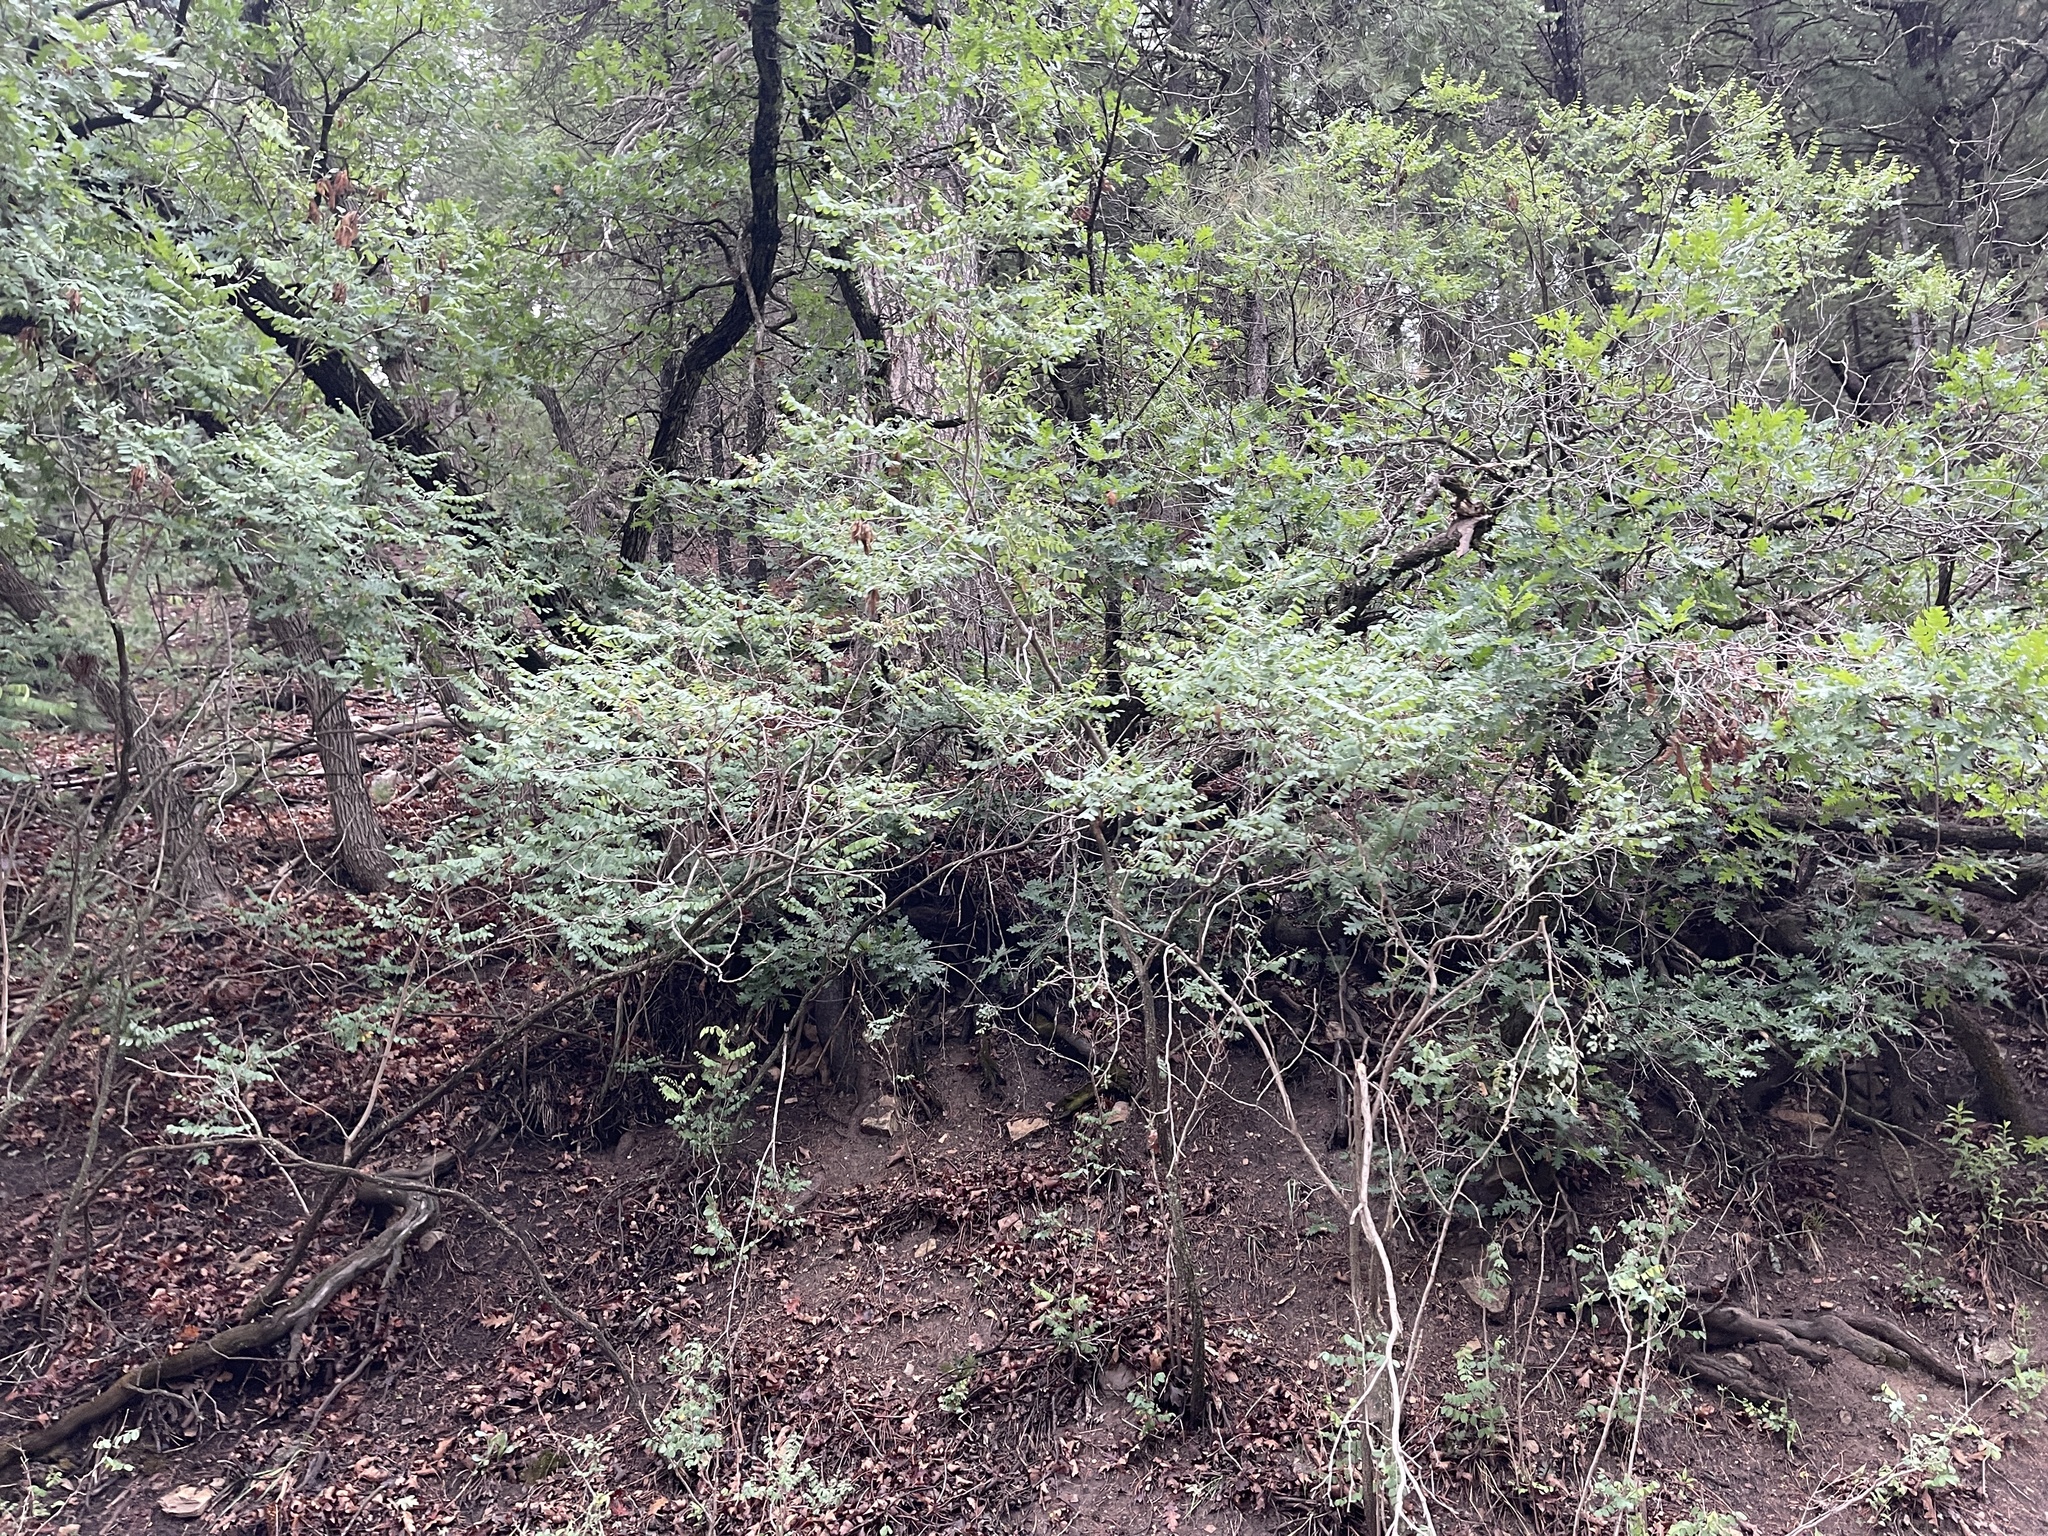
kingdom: Plantae
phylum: Tracheophyta
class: Magnoliopsida
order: Fabales
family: Fabaceae
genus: Robinia
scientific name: Robinia neomexicana
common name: New mexico locust
